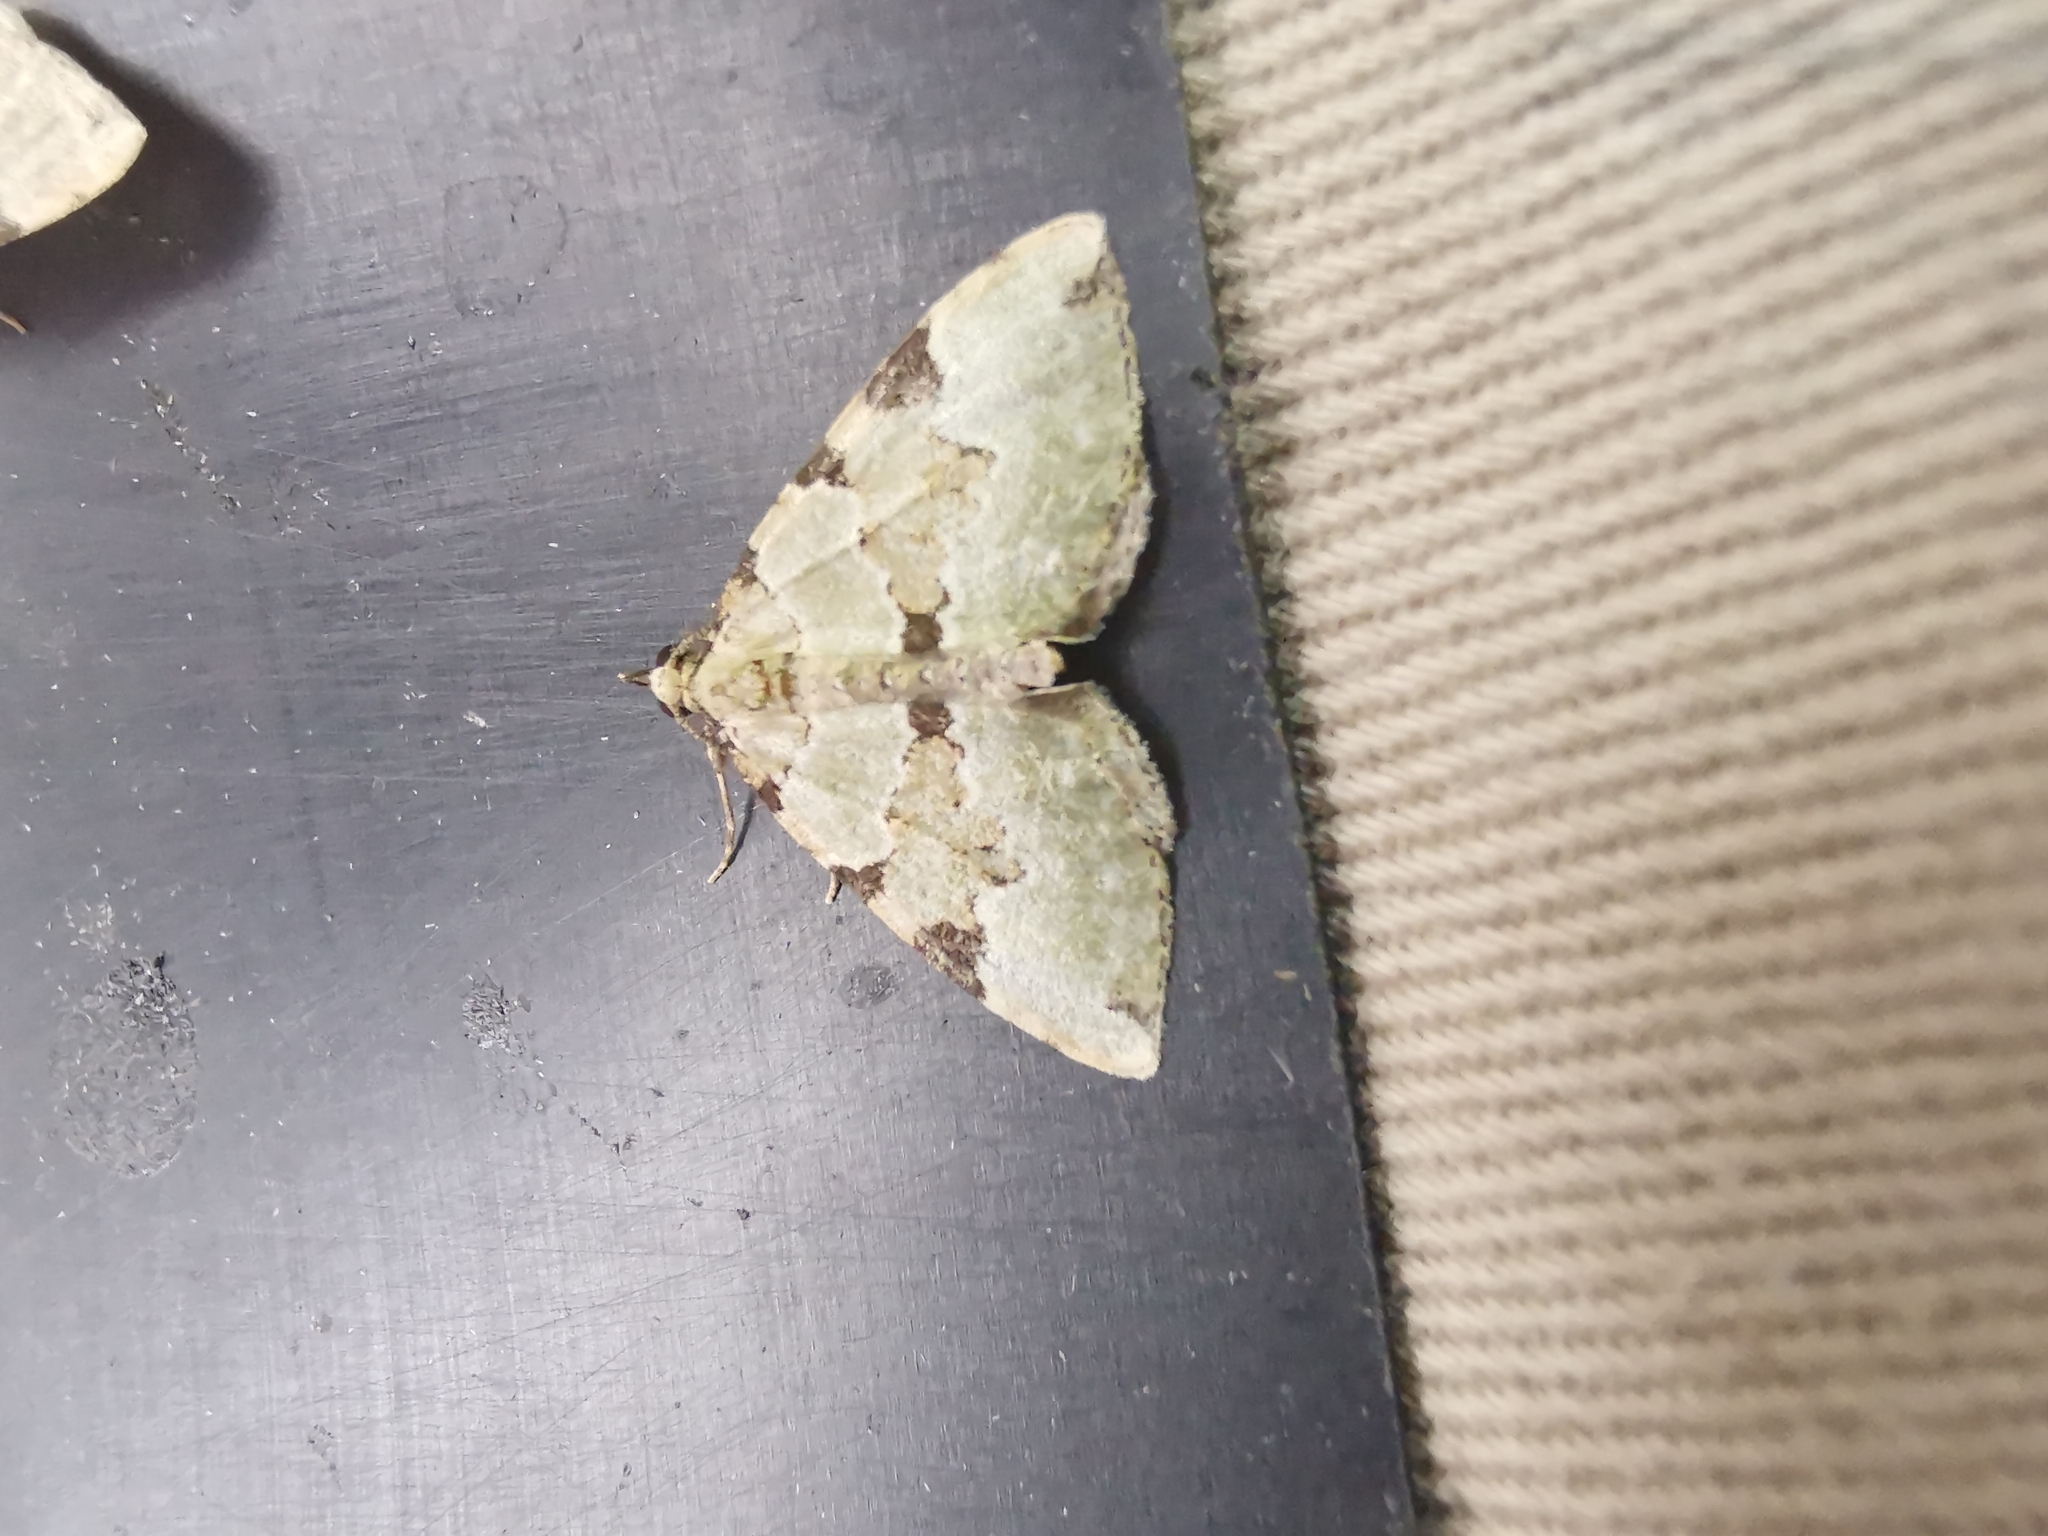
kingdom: Animalia
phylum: Arthropoda
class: Insecta
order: Lepidoptera
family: Geometridae
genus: Colostygia
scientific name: Colostygia pectinataria
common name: Green carpet
